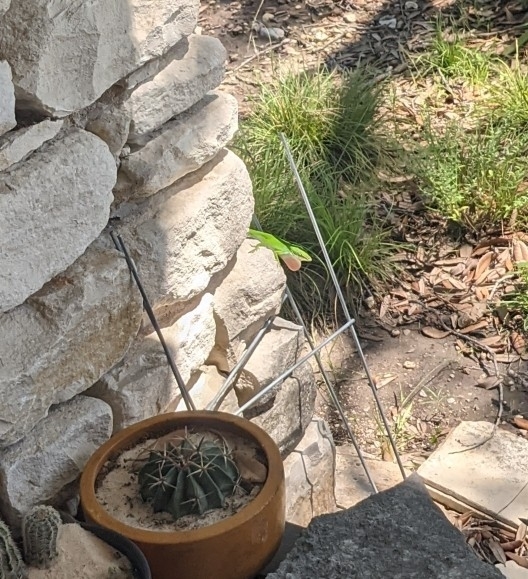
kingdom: Animalia
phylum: Chordata
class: Squamata
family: Dactyloidae
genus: Anolis
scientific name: Anolis carolinensis
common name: Green anole
